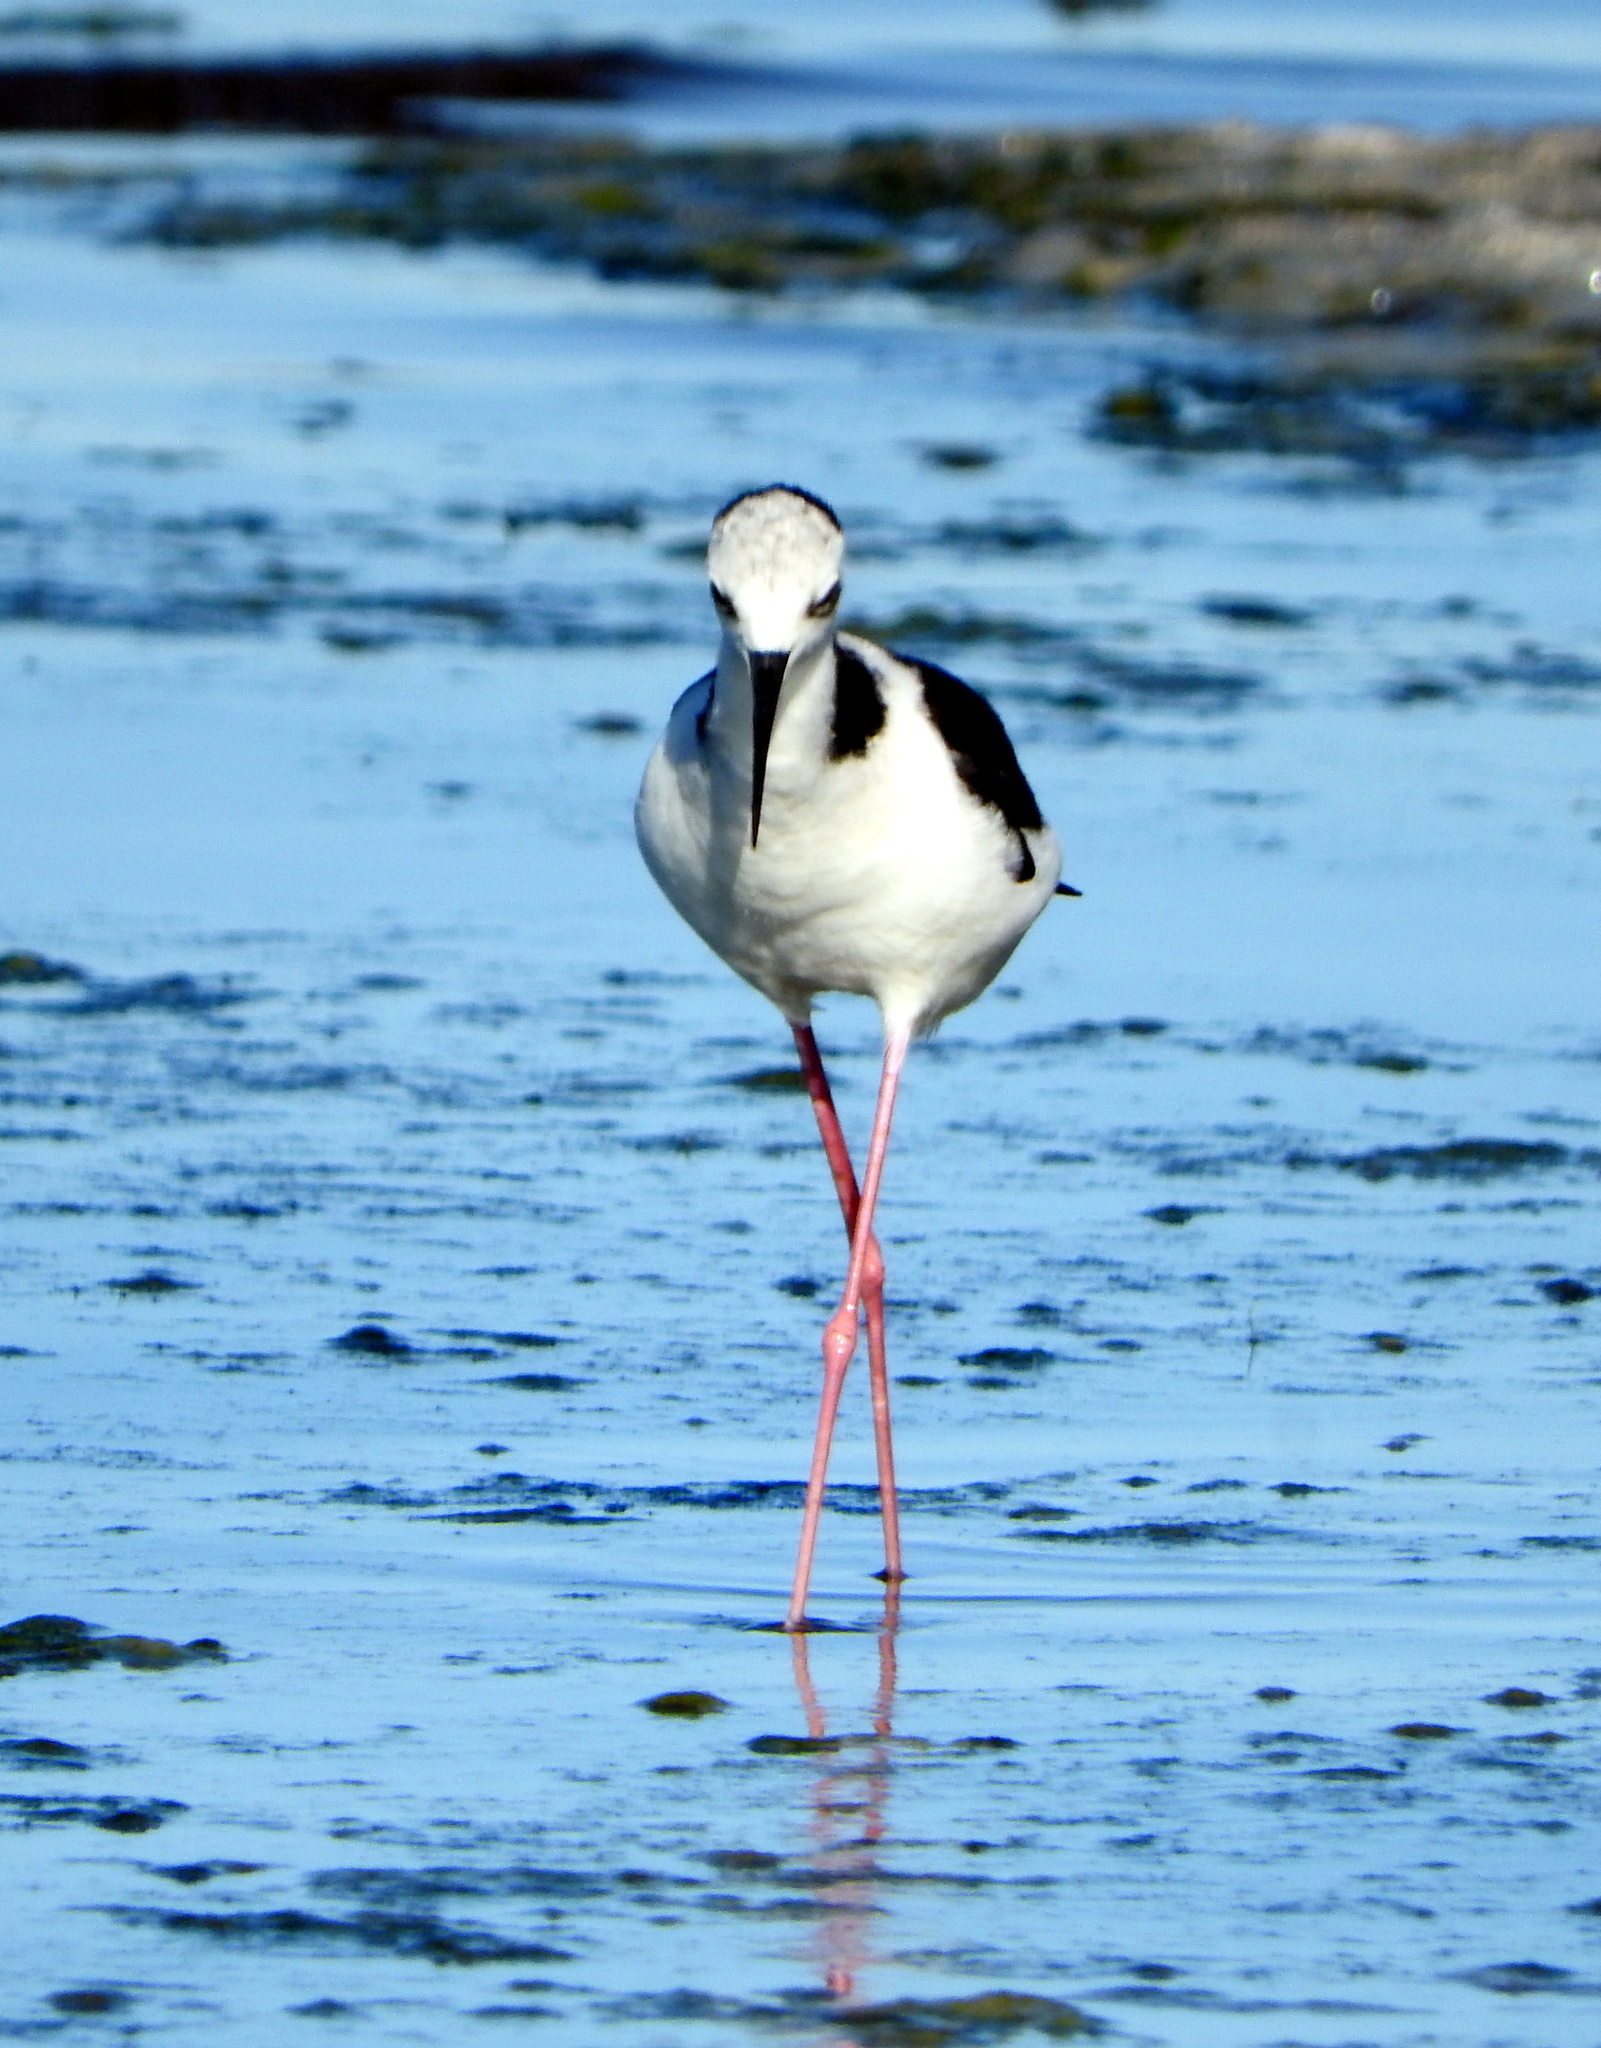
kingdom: Animalia
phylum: Chordata
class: Aves
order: Charadriiformes
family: Recurvirostridae
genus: Himantopus
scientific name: Himantopus mexicanus
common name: Black-necked stilt
